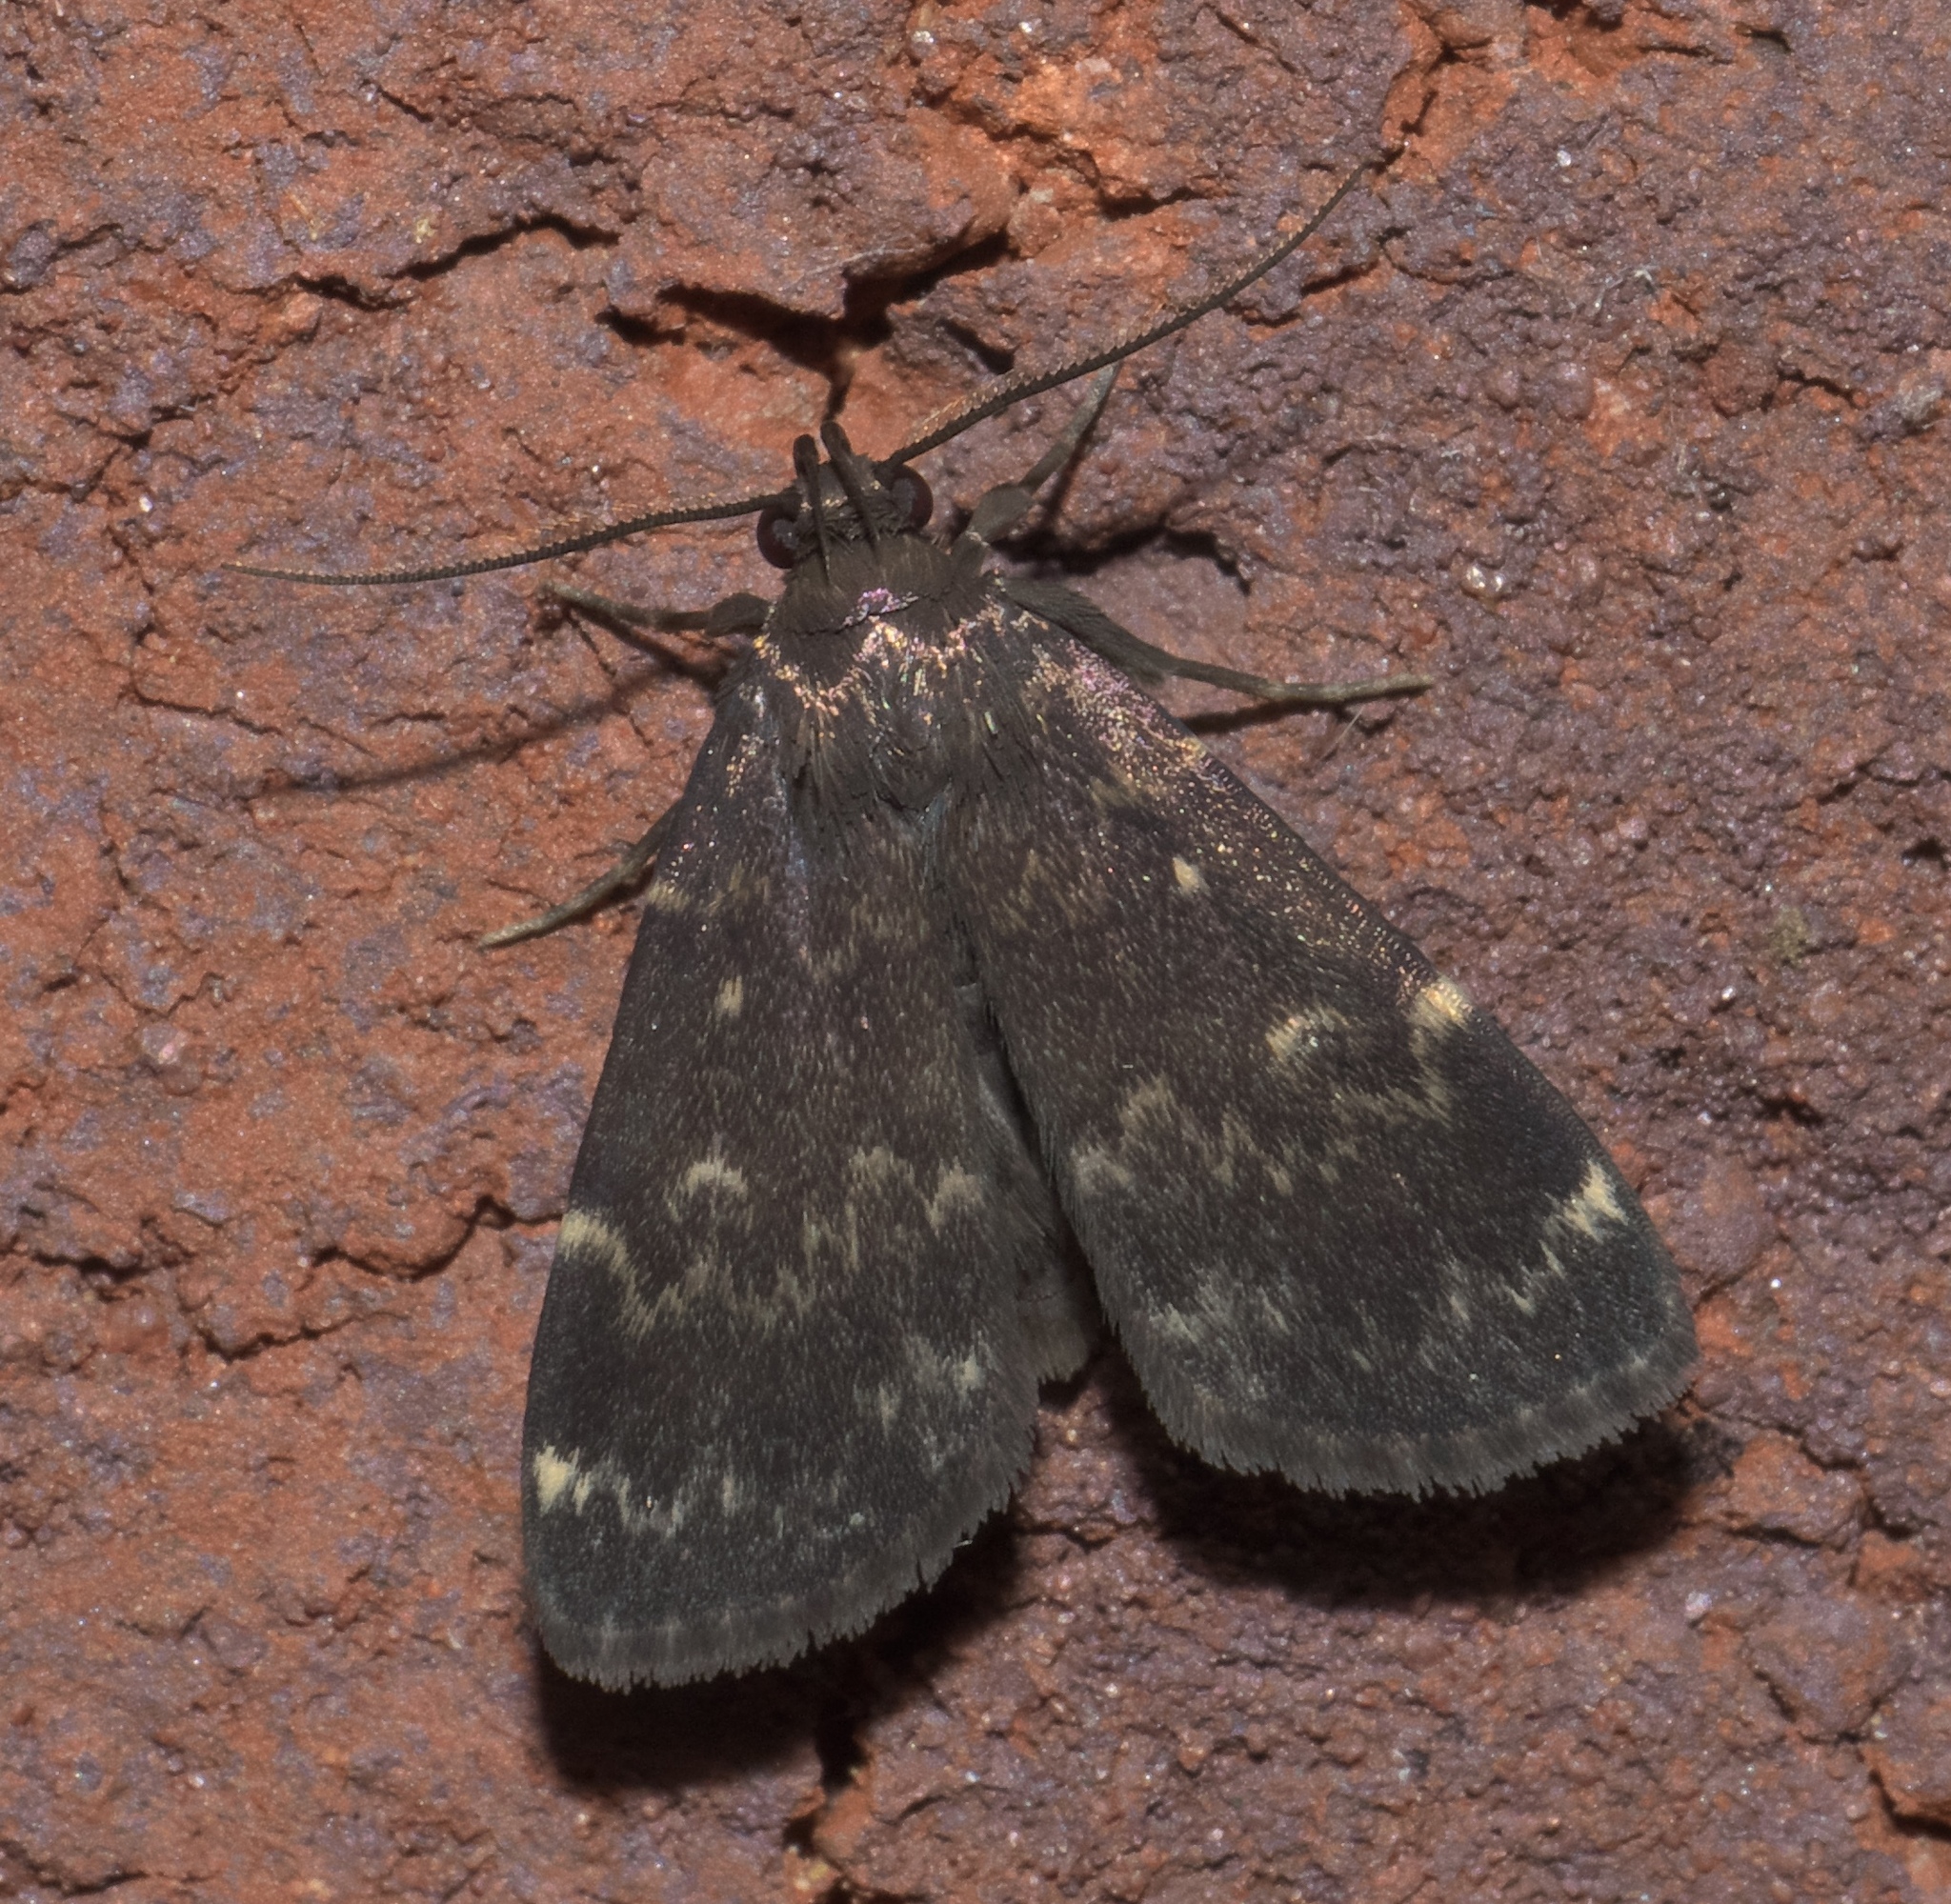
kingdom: Animalia
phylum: Arthropoda
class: Insecta
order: Lepidoptera
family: Erebidae
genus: Idia
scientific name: Idia lubricalis
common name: Twin-striped tabby
